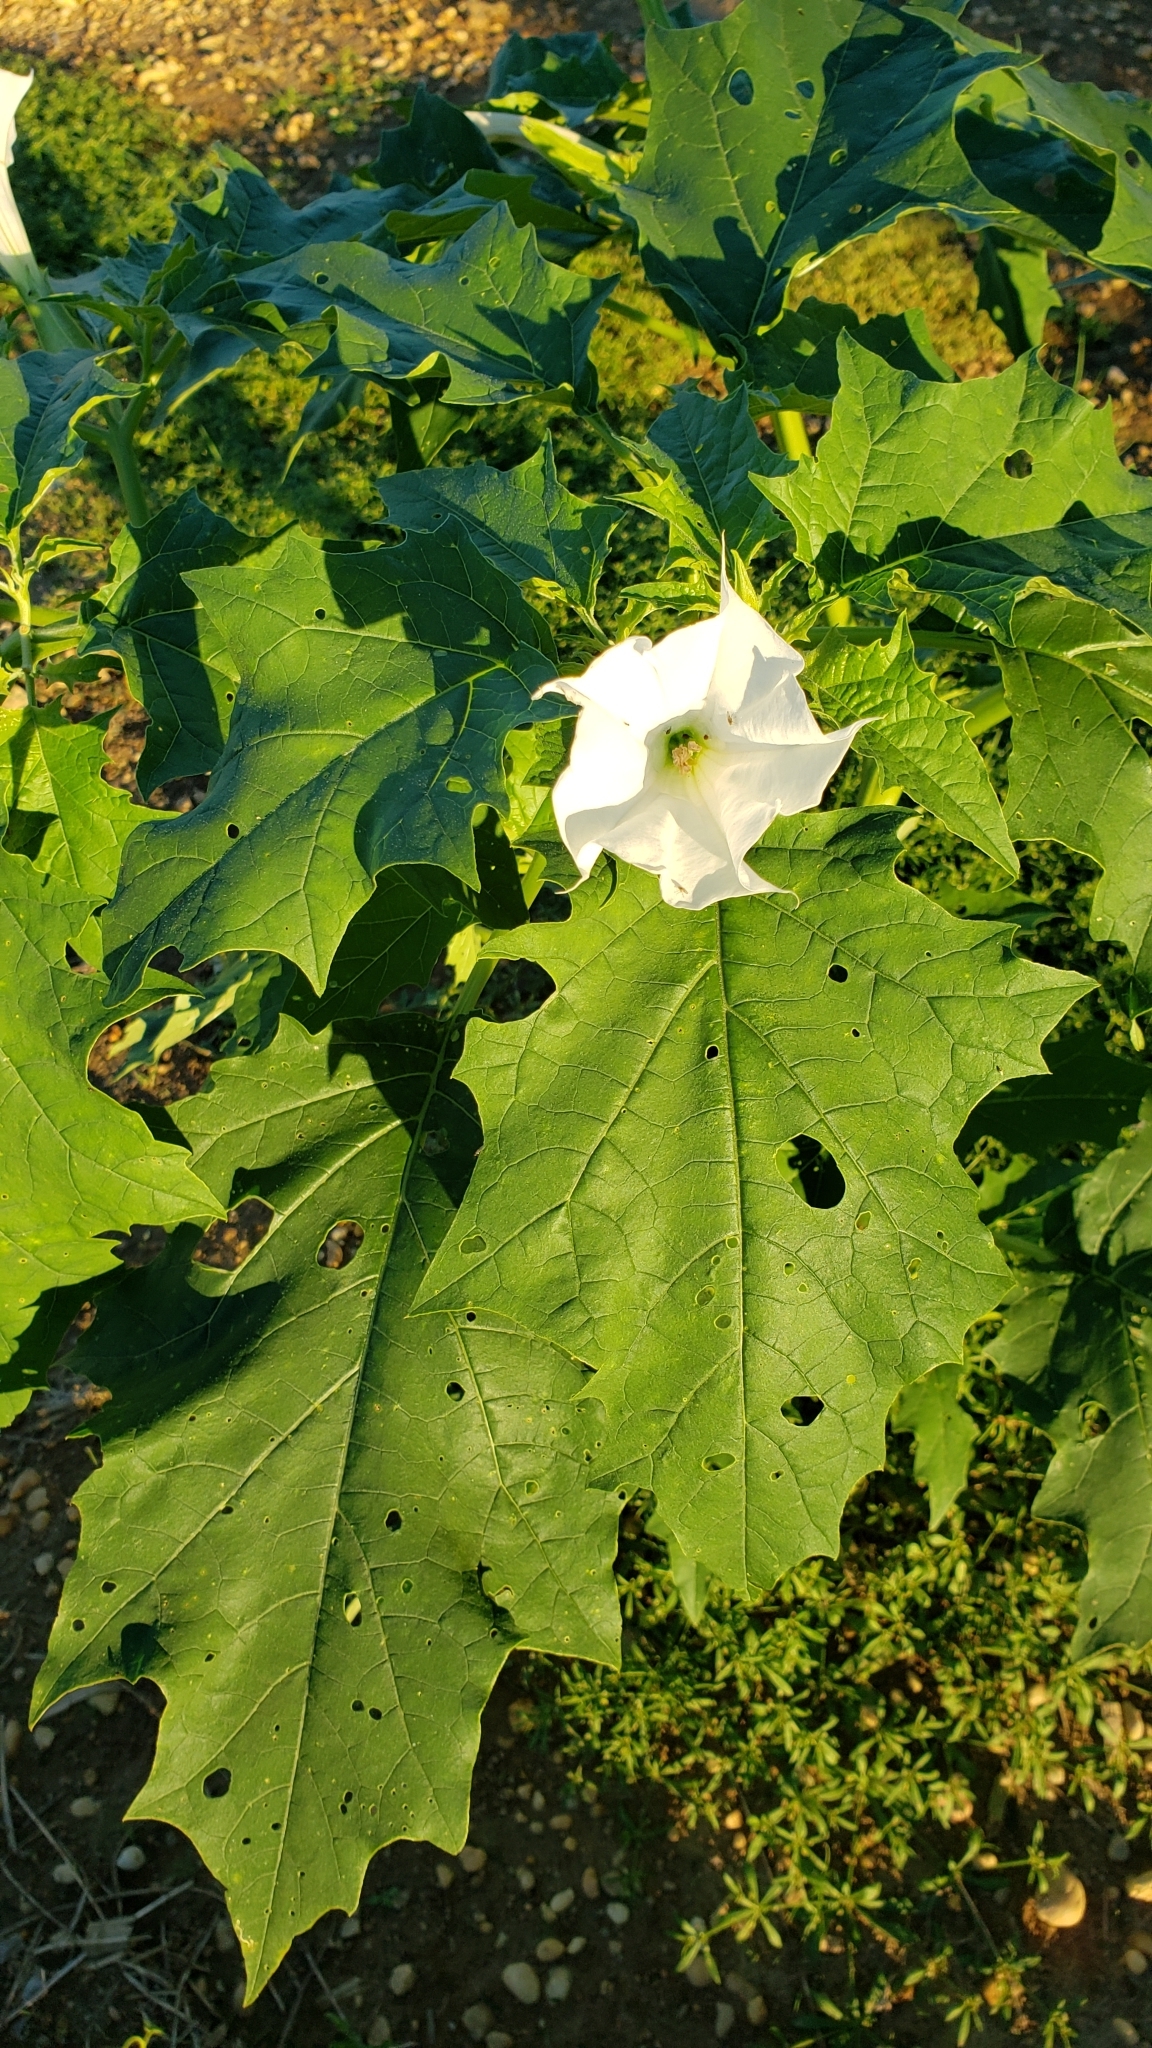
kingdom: Plantae
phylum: Tracheophyta
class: Magnoliopsida
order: Solanales
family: Solanaceae
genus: Datura
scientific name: Datura stramonium
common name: Thorn-apple
